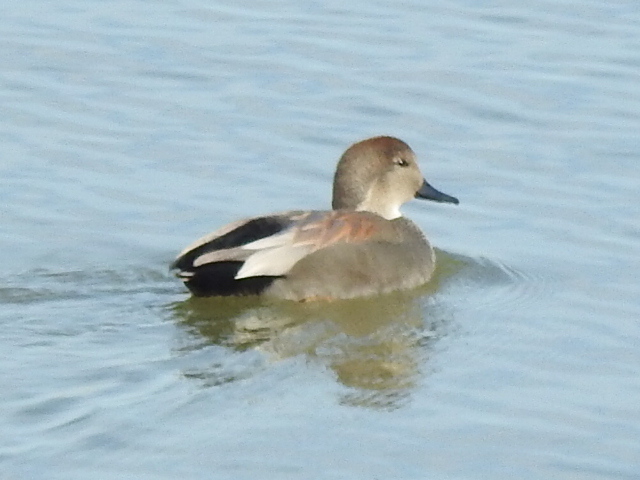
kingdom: Animalia
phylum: Chordata
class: Aves
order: Anseriformes
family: Anatidae
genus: Mareca
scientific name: Mareca strepera
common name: Gadwall
